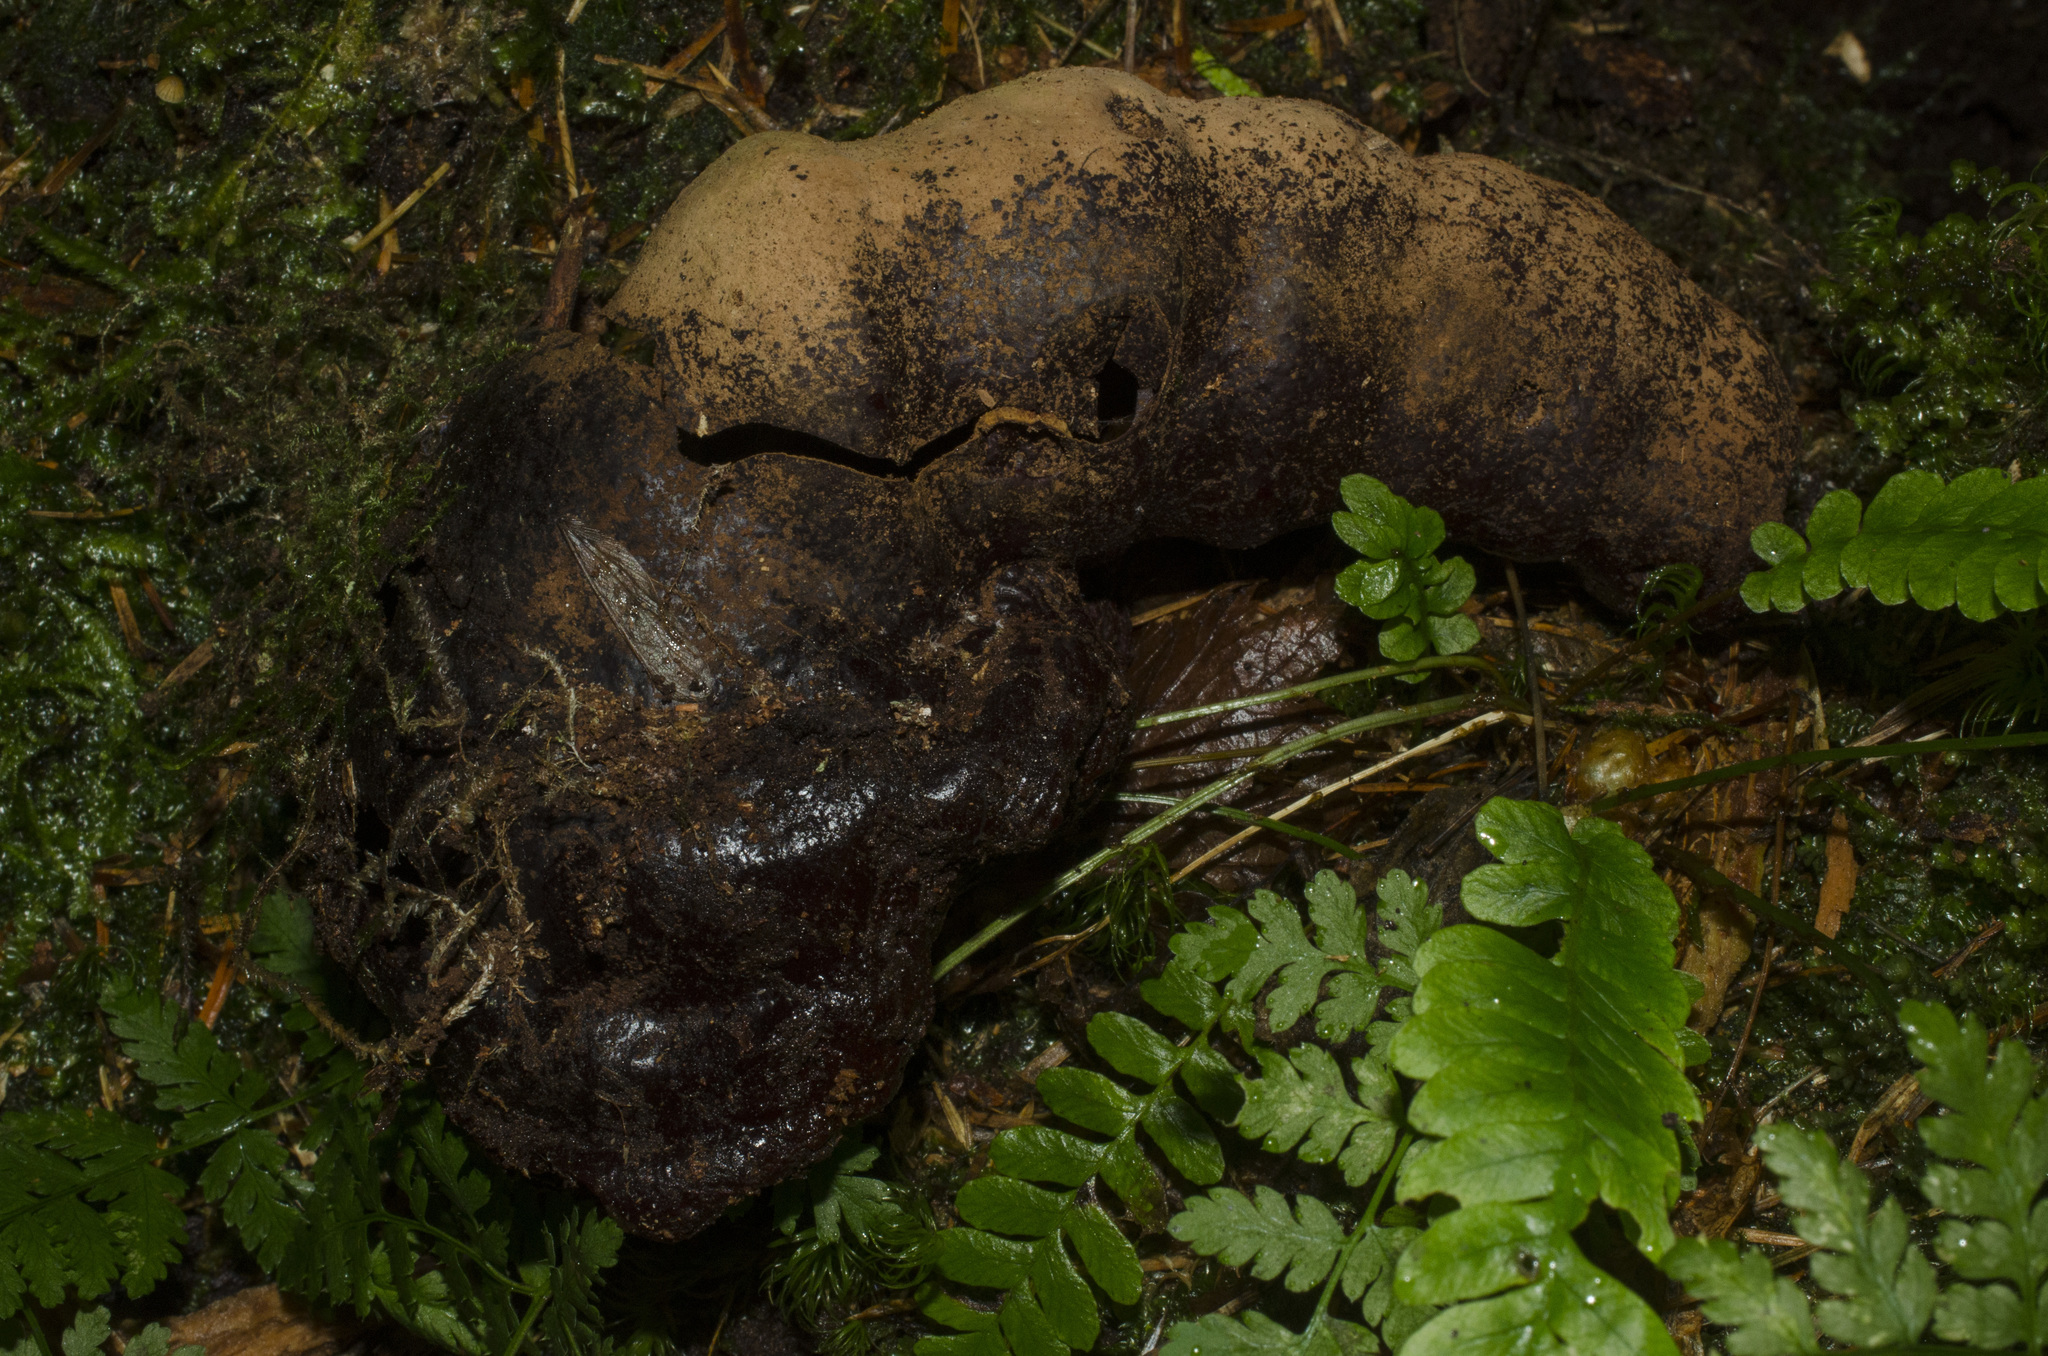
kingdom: Fungi
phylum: Basidiomycota
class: Agaricomycetes
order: Polyporales
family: Polyporaceae
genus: Ganoderma
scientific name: Ganoderma oregonense
